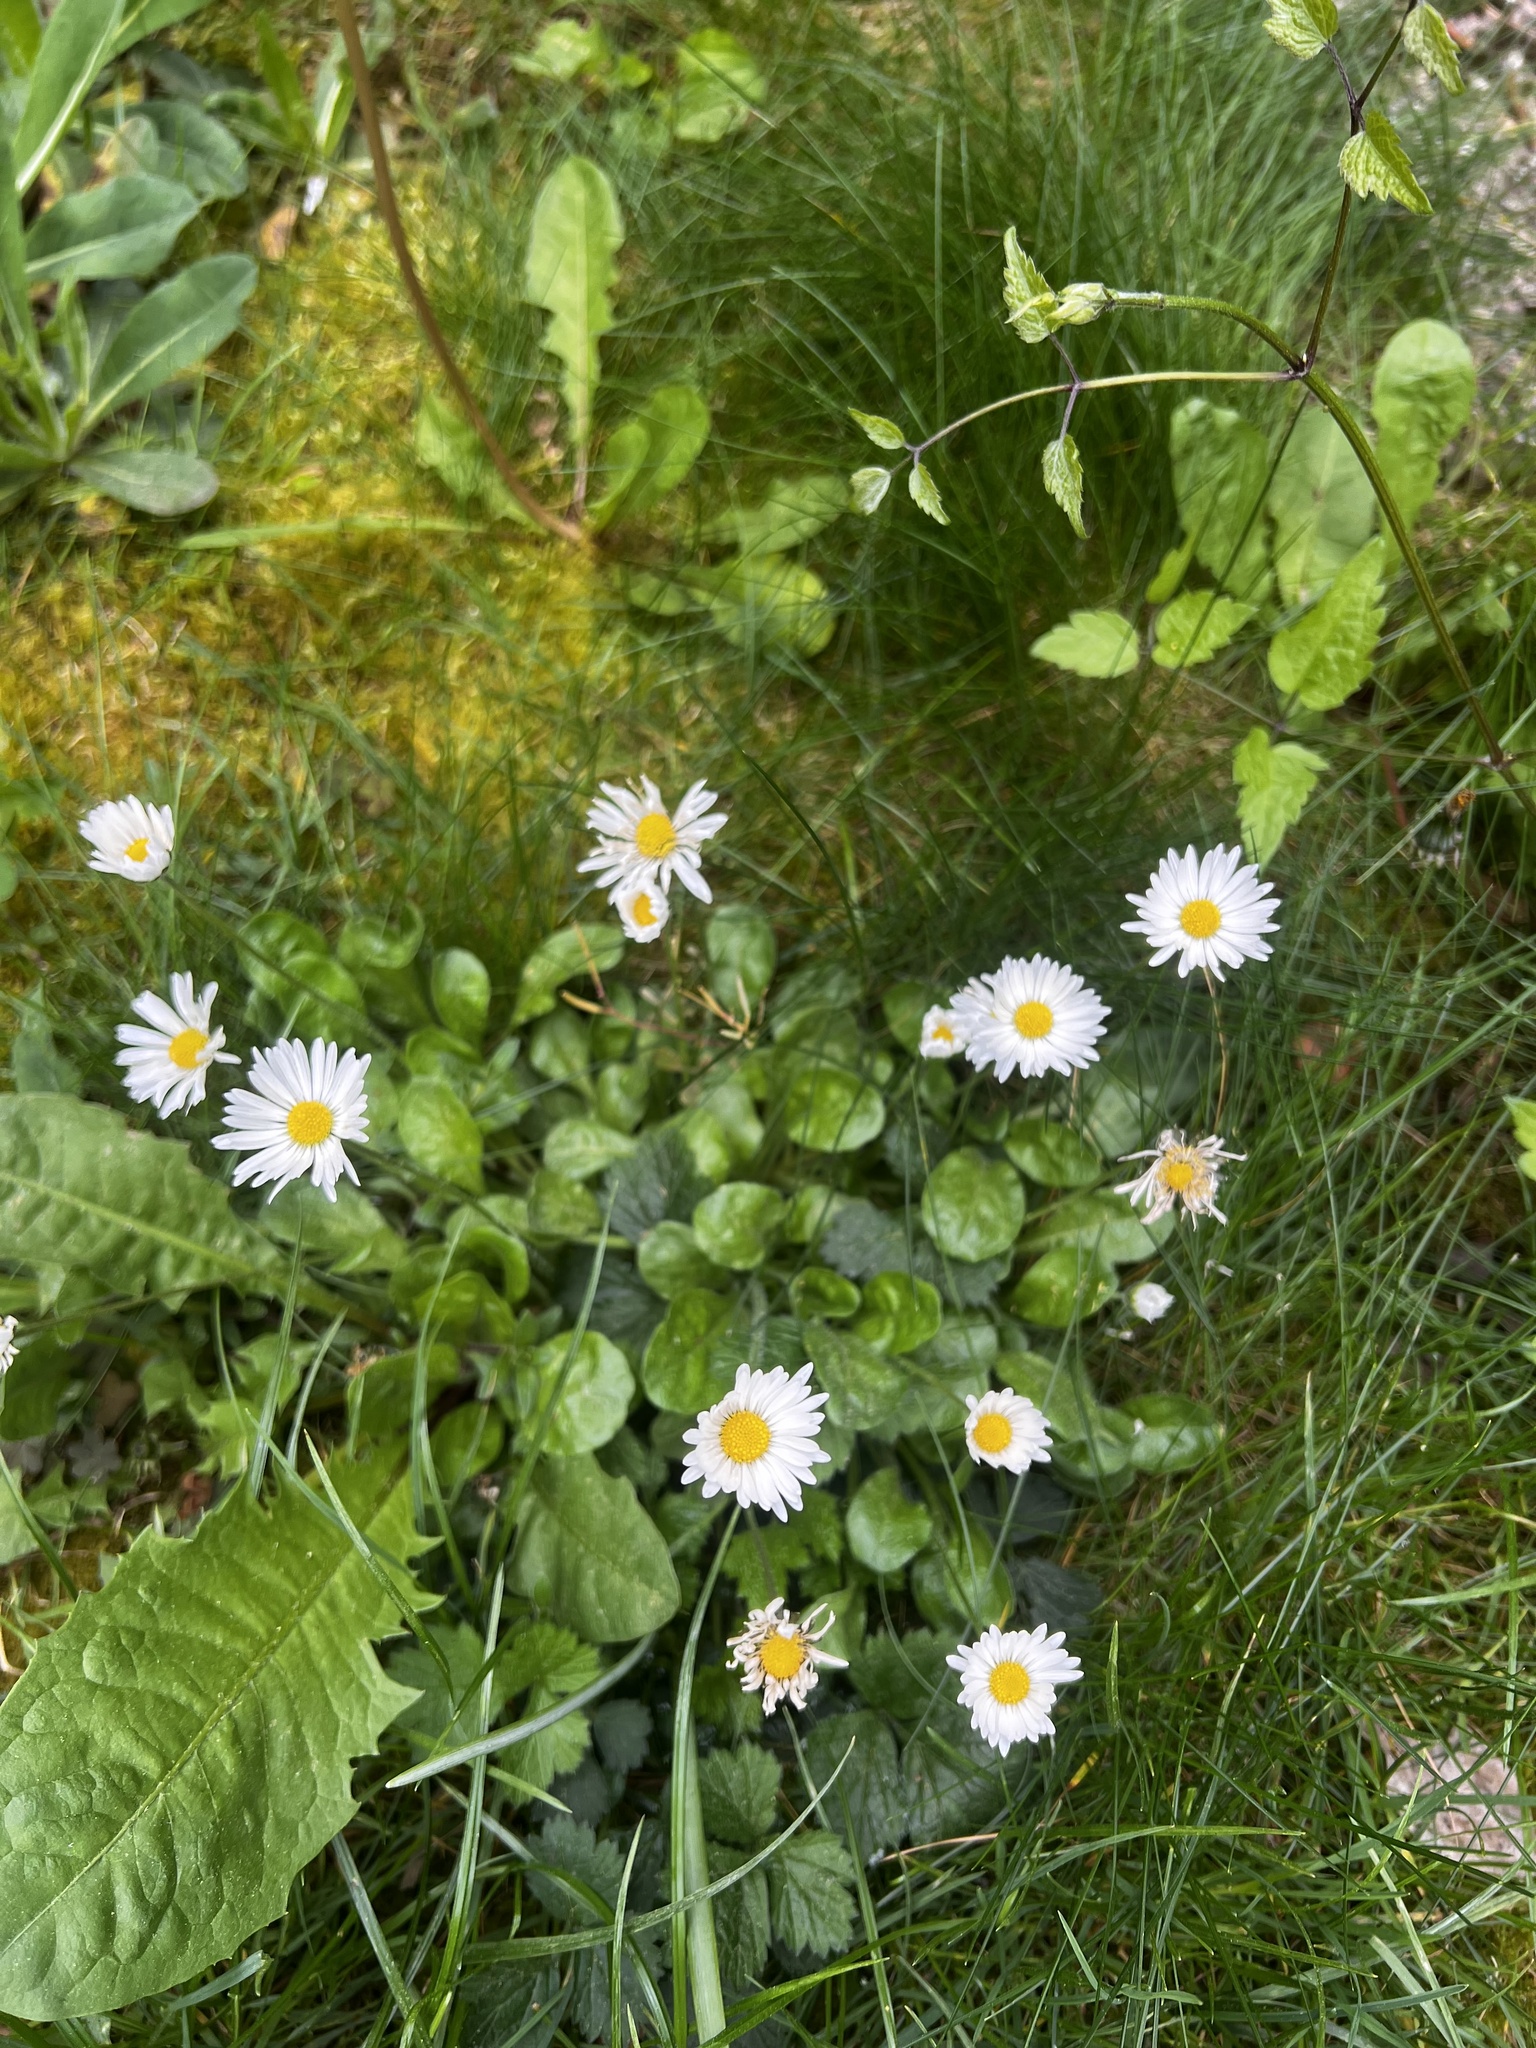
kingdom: Plantae
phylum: Tracheophyta
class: Magnoliopsida
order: Asterales
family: Asteraceae
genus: Bellis
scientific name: Bellis perennis
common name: Lawndaisy
